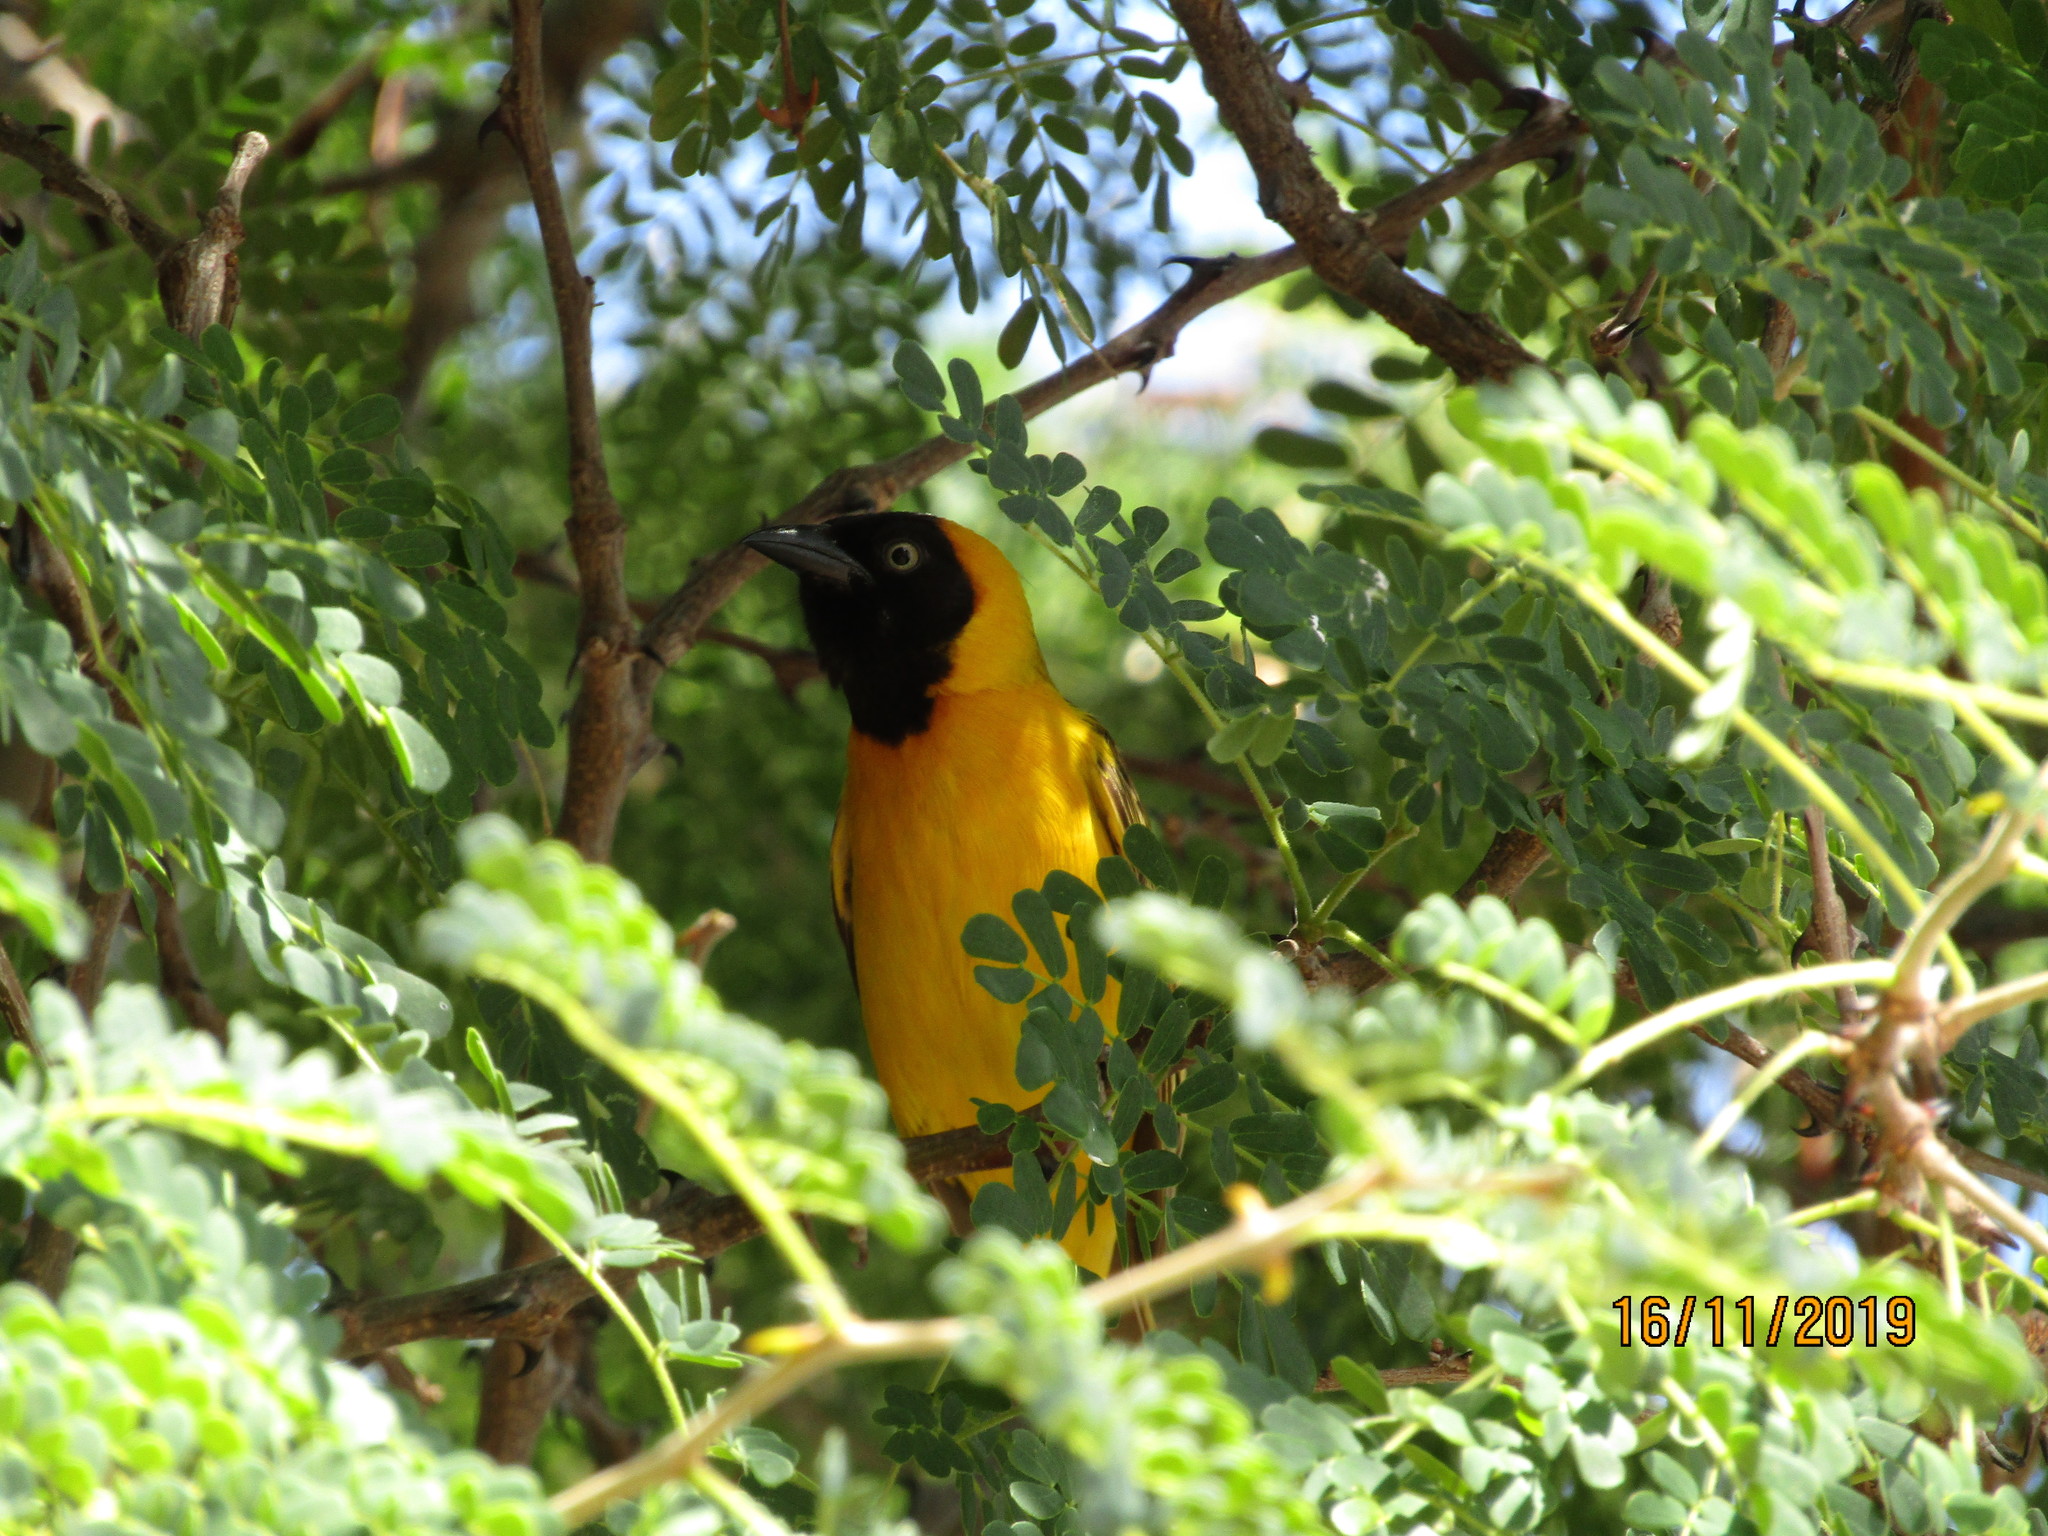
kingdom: Animalia
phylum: Chordata
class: Aves
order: Passeriformes
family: Ploceidae
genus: Ploceus
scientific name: Ploceus intermedius
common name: Lesser masked weaver
